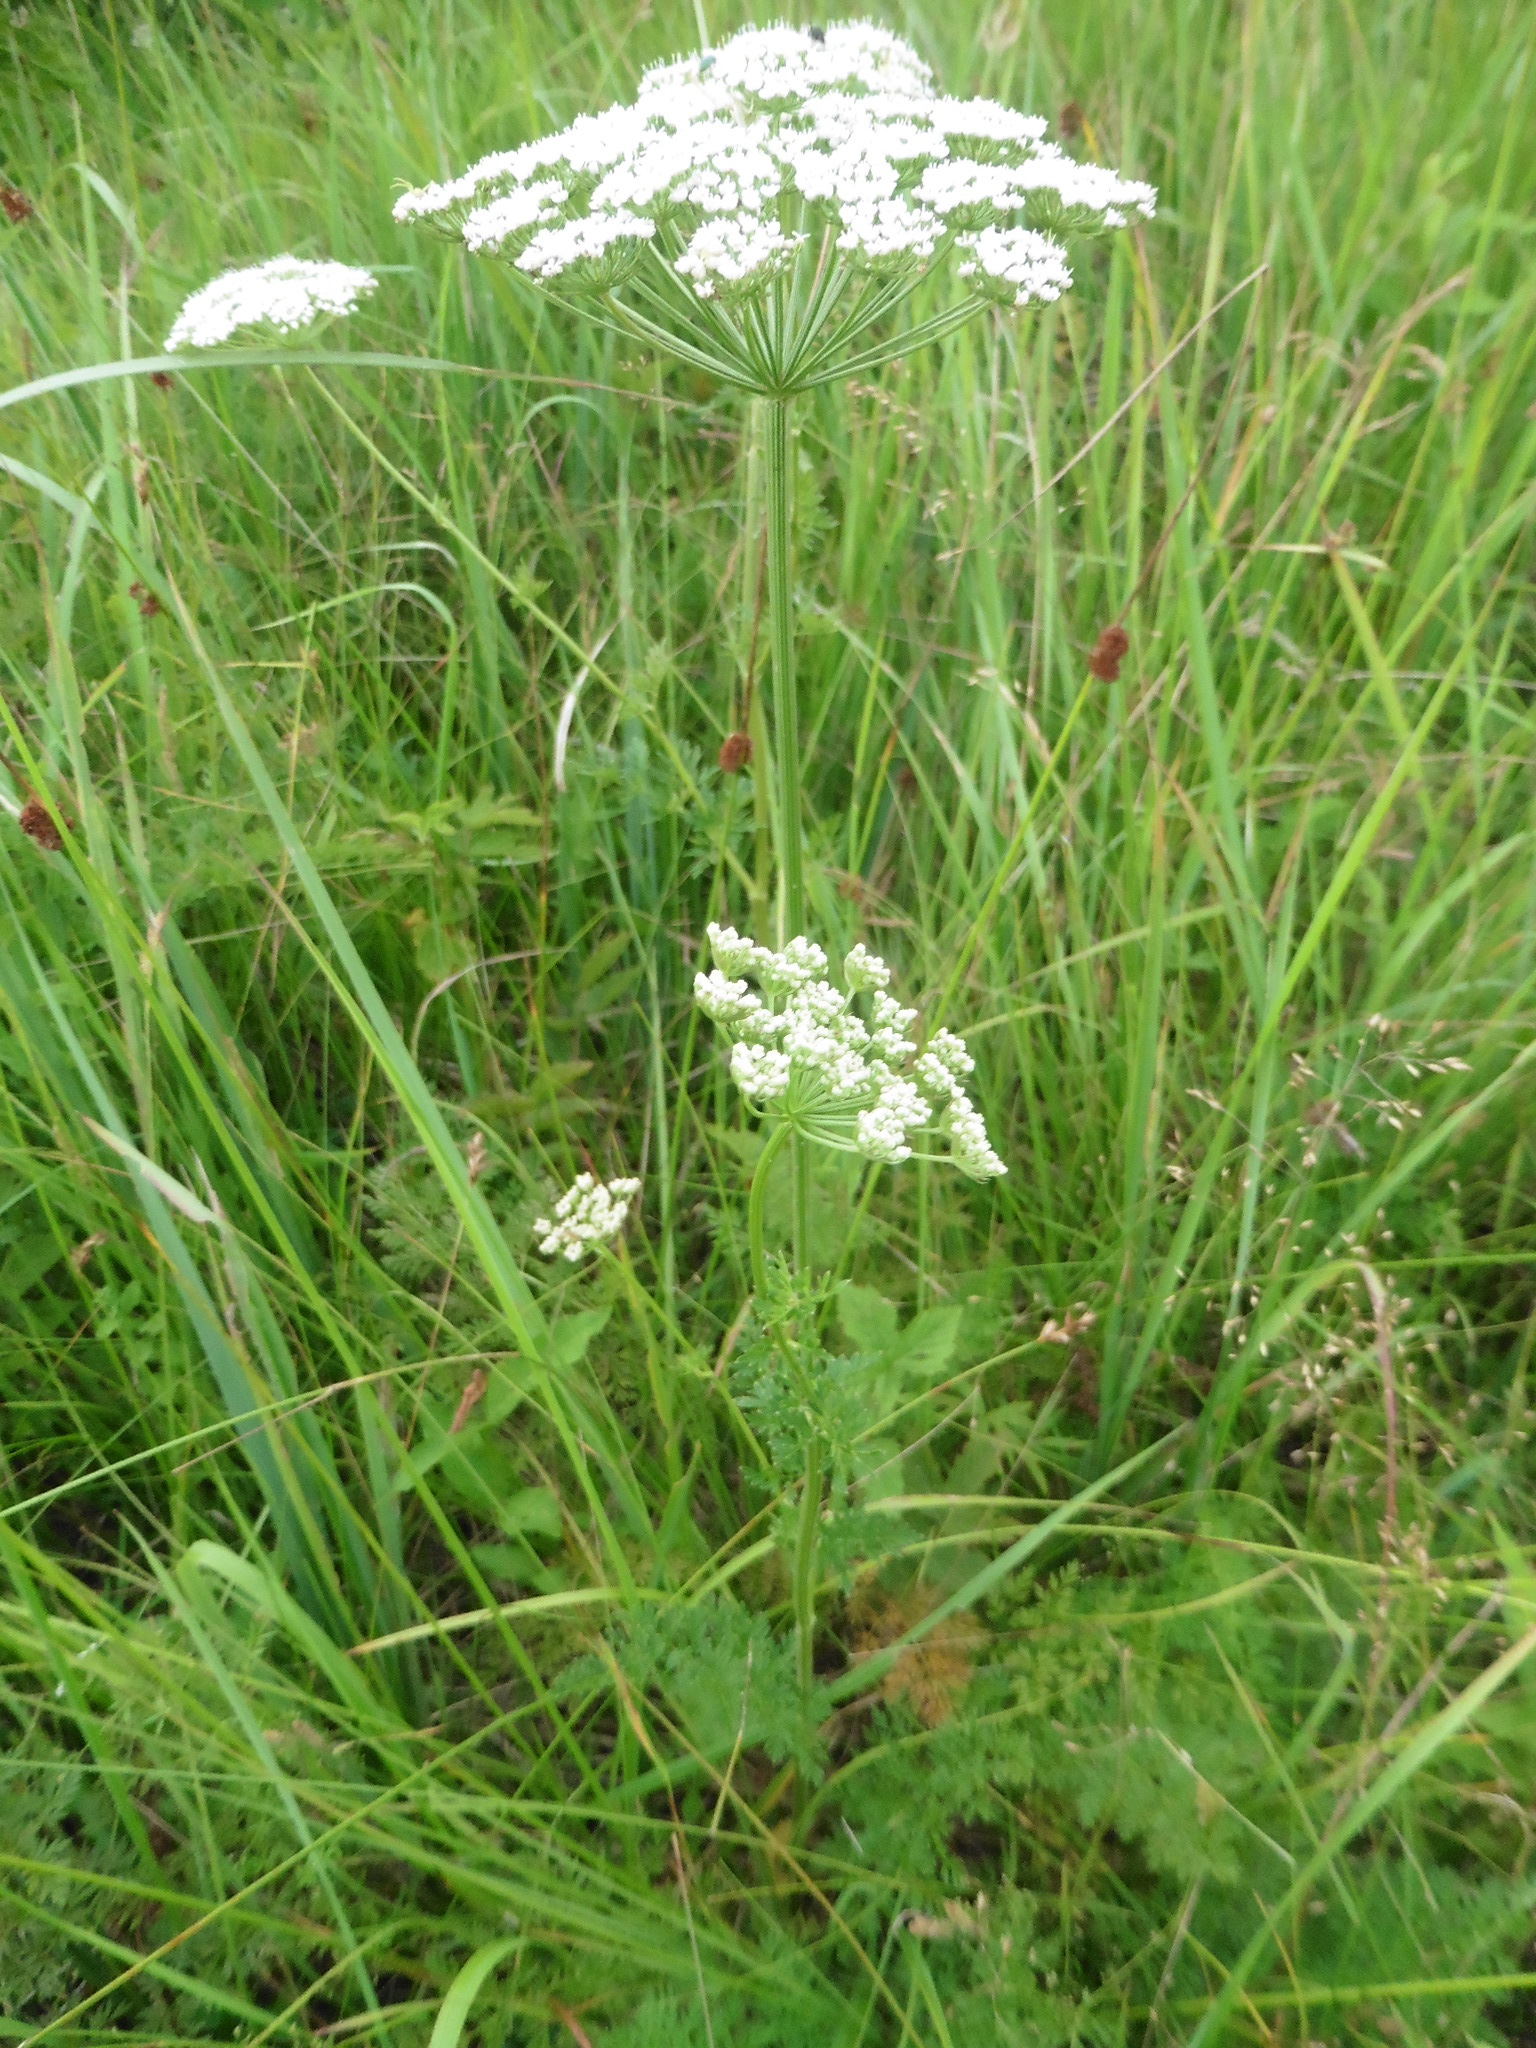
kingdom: Plantae
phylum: Tracheophyta
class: Magnoliopsida
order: Apiales
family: Apiaceae
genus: Selinum
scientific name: Selinum carvifolia
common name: Cambridge milk-parsley
